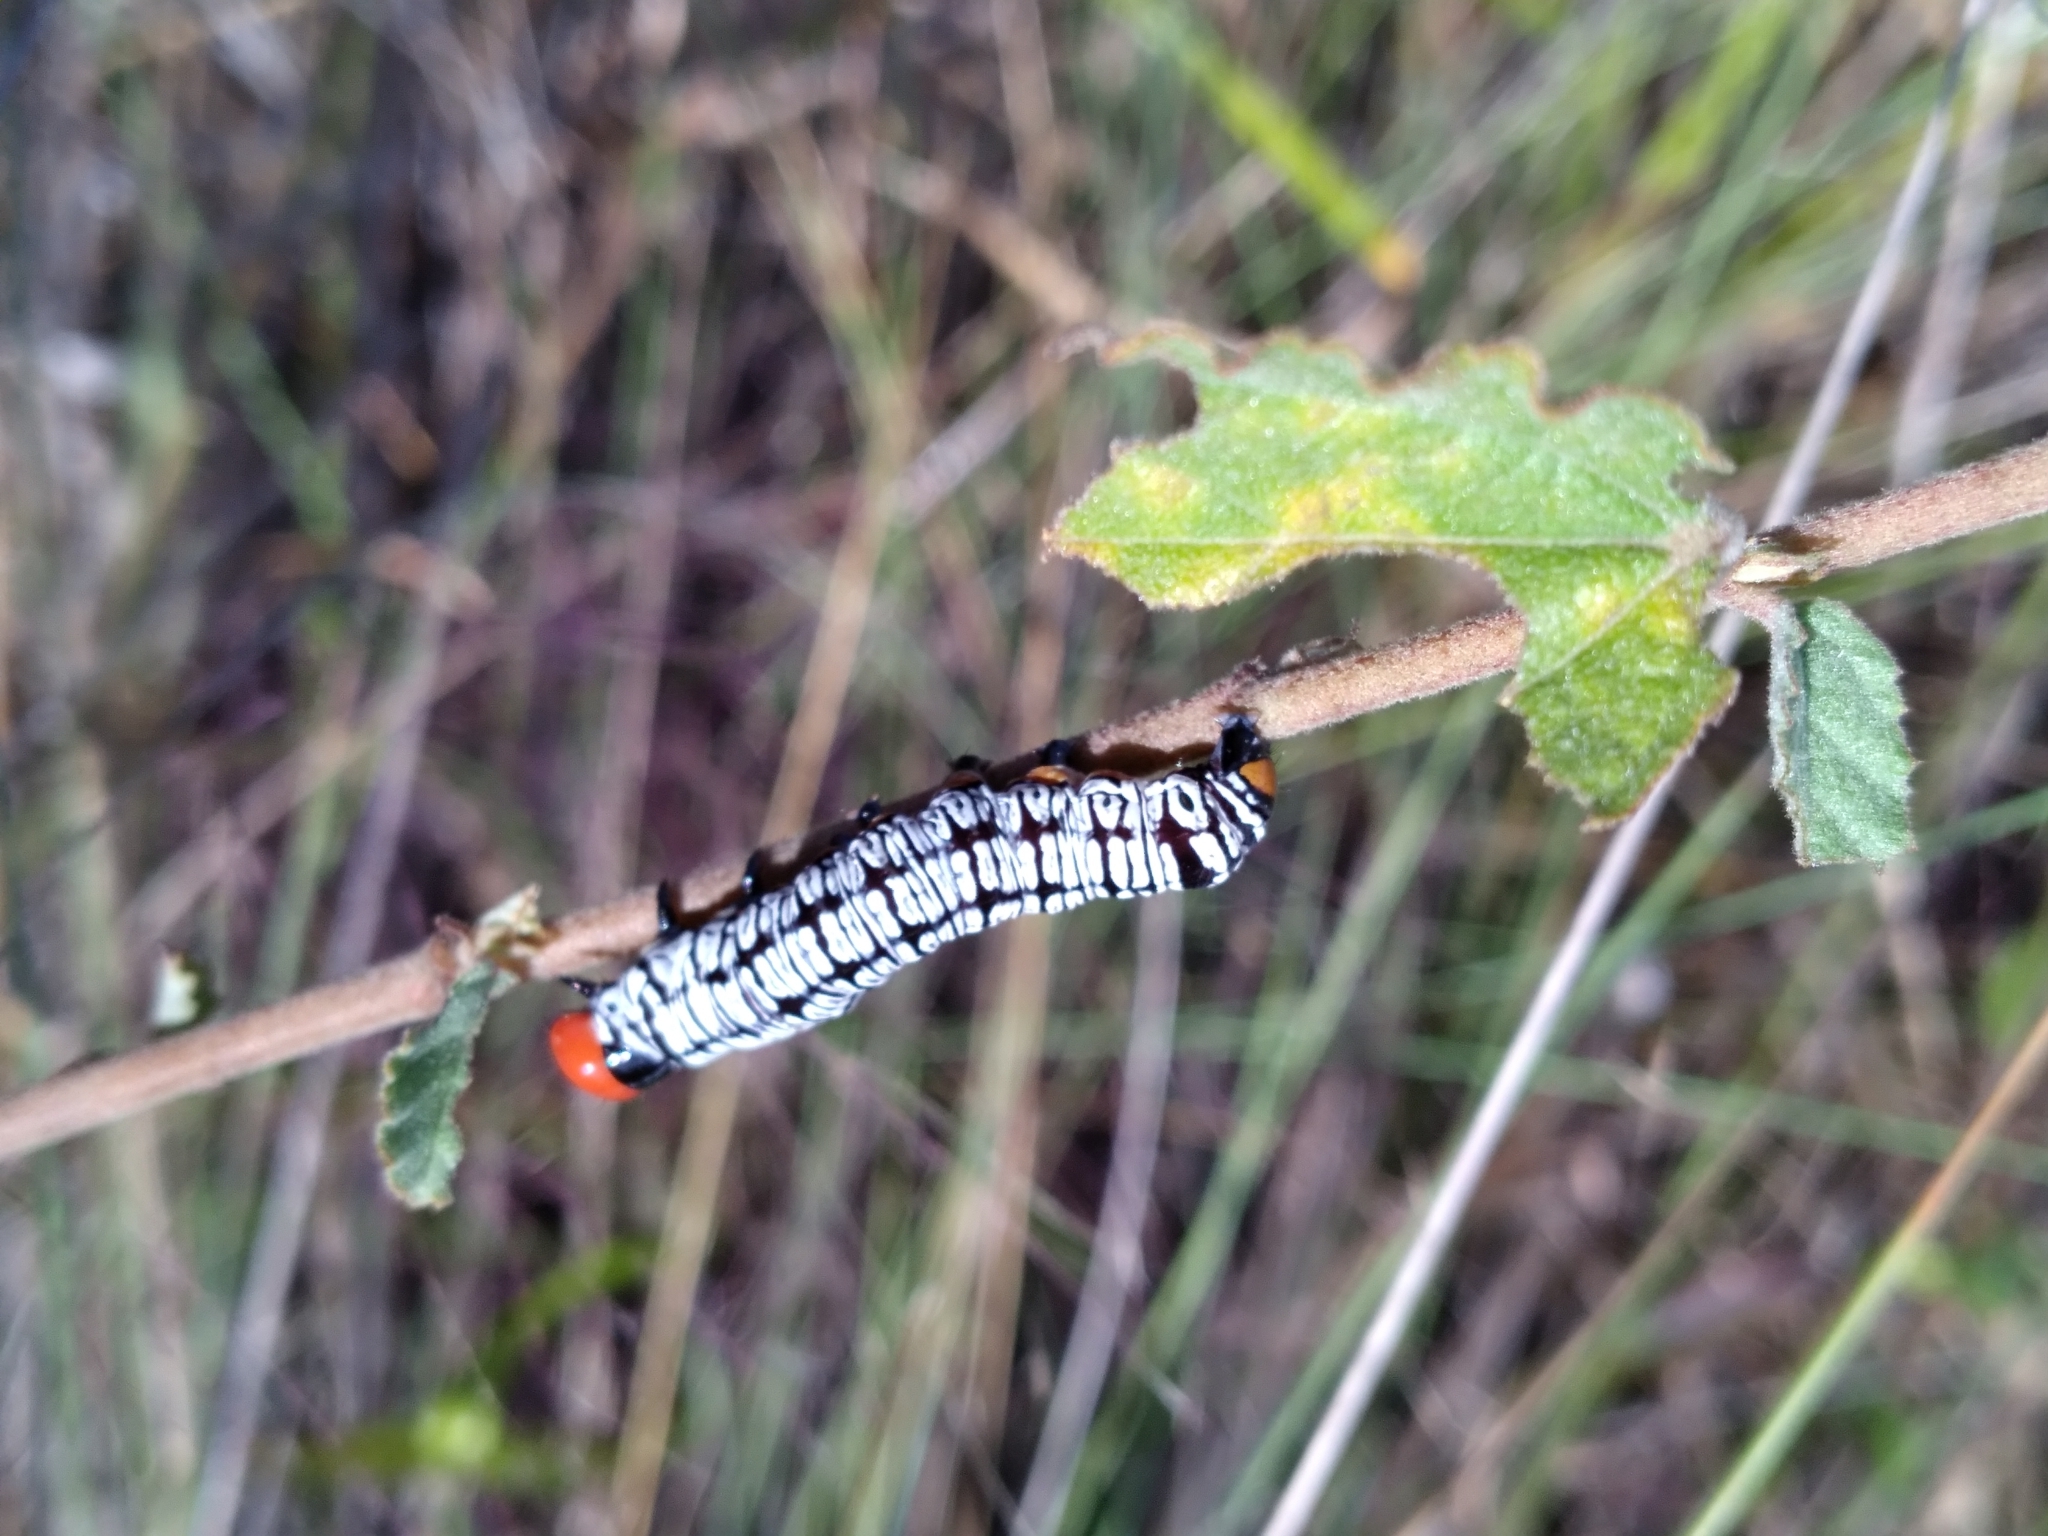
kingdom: Animalia
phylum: Arthropoda
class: Insecta
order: Lepidoptera
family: Erebidae
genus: Diphthera
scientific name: Diphthera festiva
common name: Hieroglyphic moth
